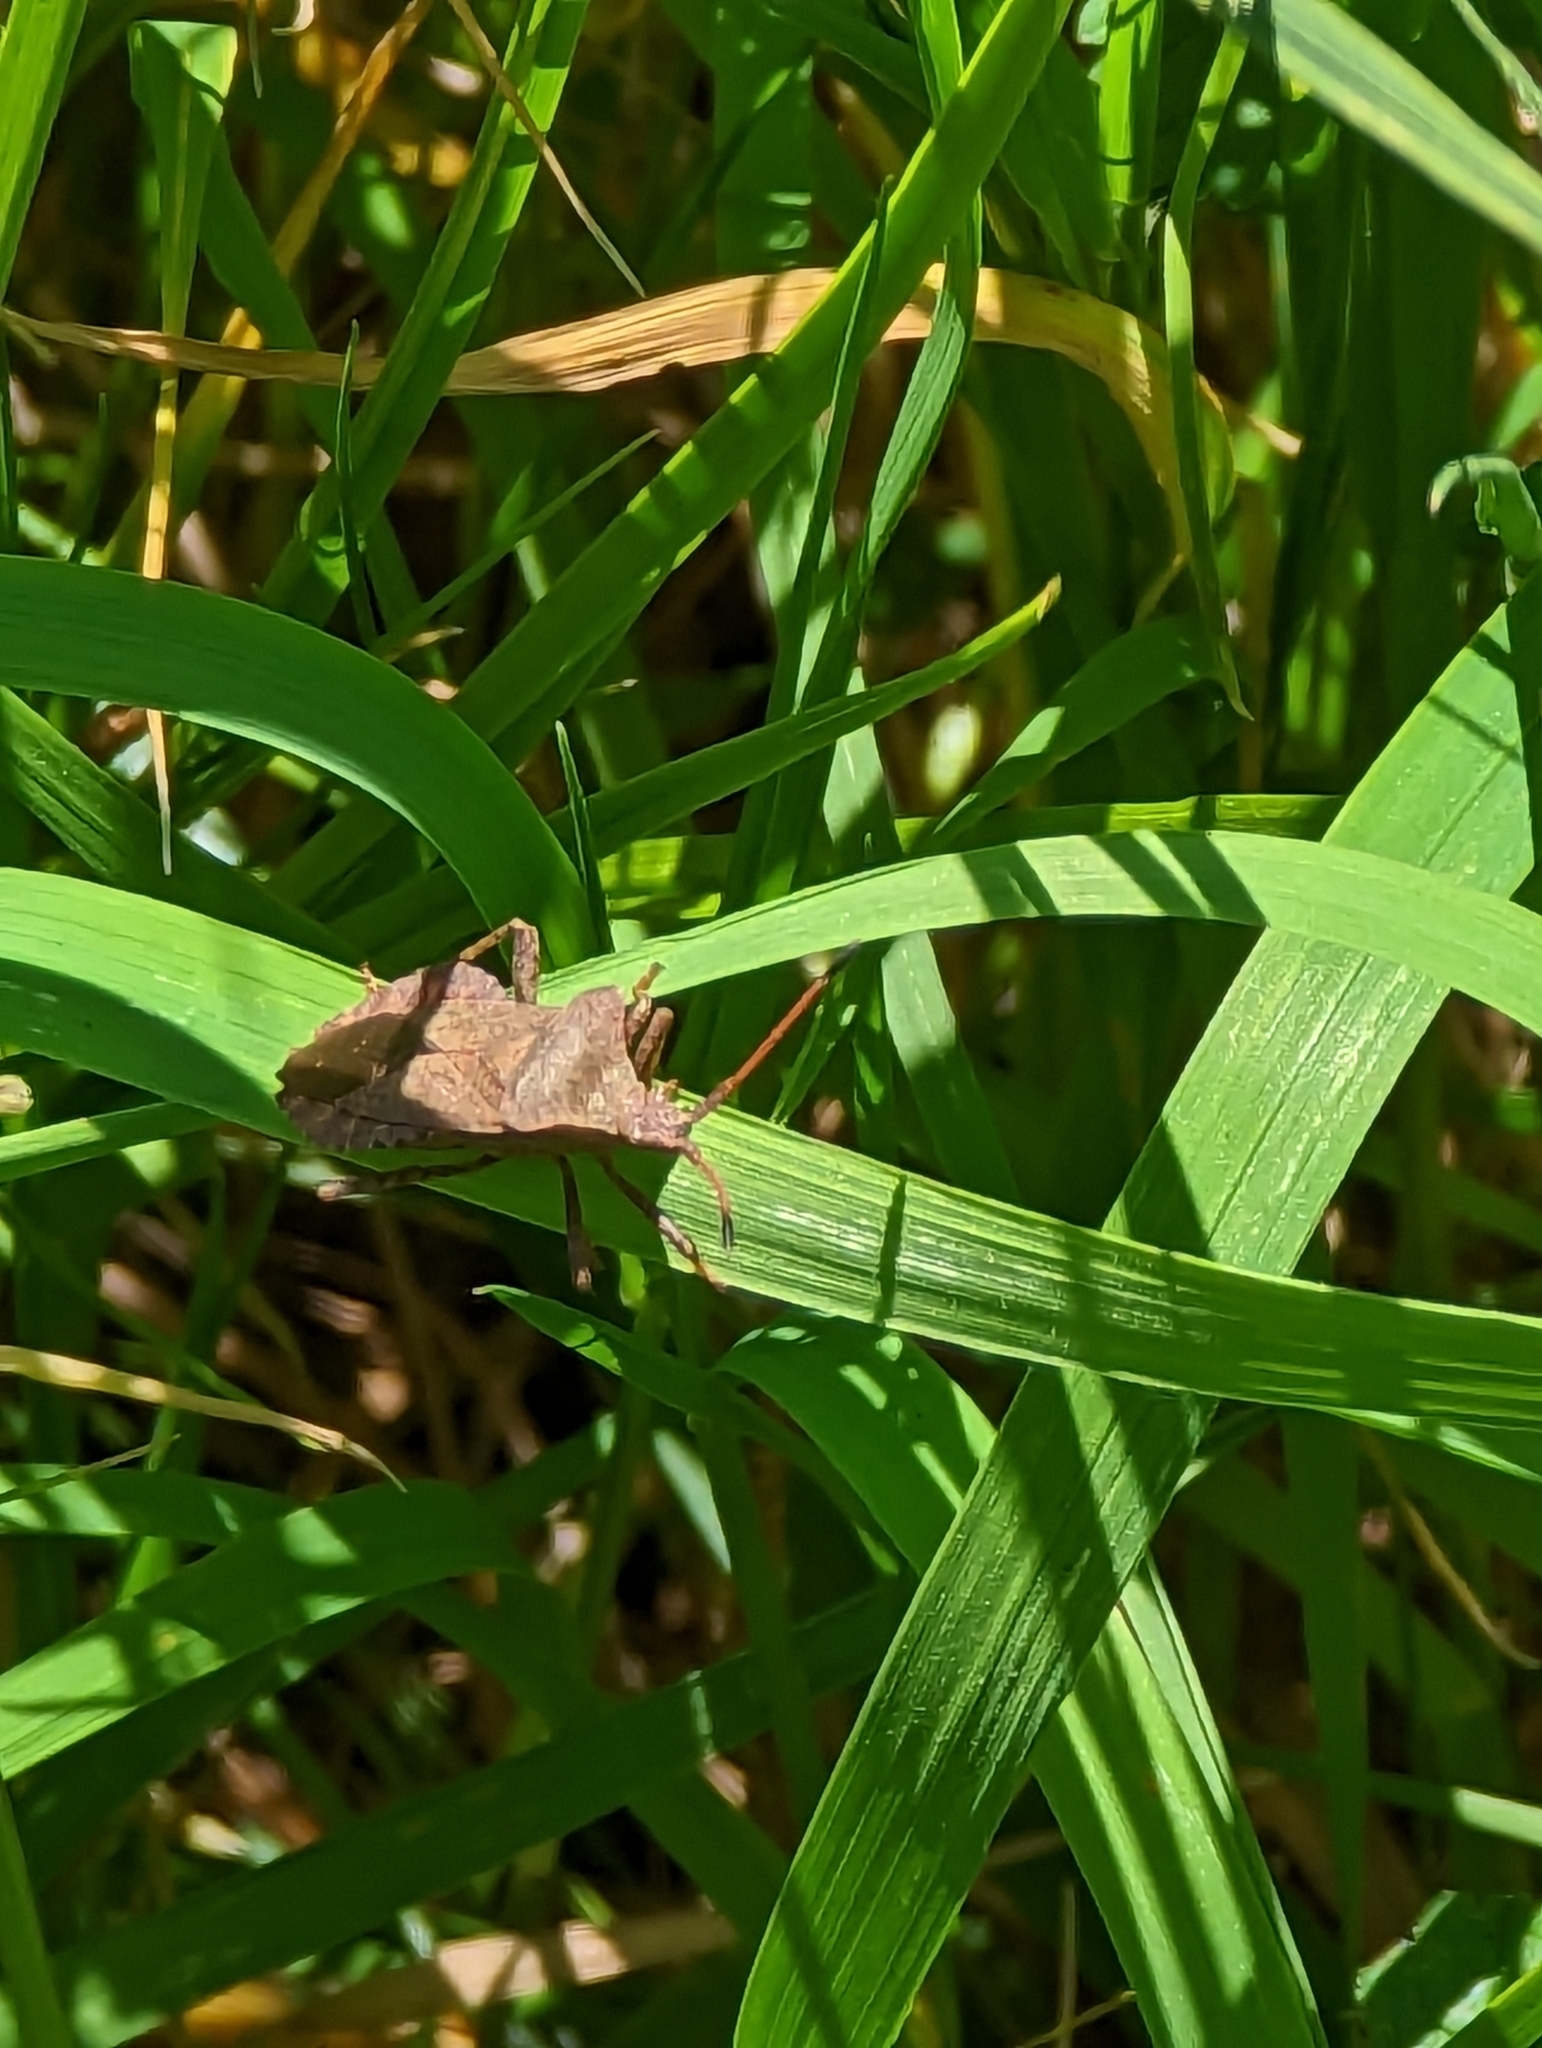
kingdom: Animalia
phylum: Arthropoda
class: Insecta
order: Hemiptera
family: Coreidae
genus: Coreus
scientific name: Coreus marginatus
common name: Dock bug
